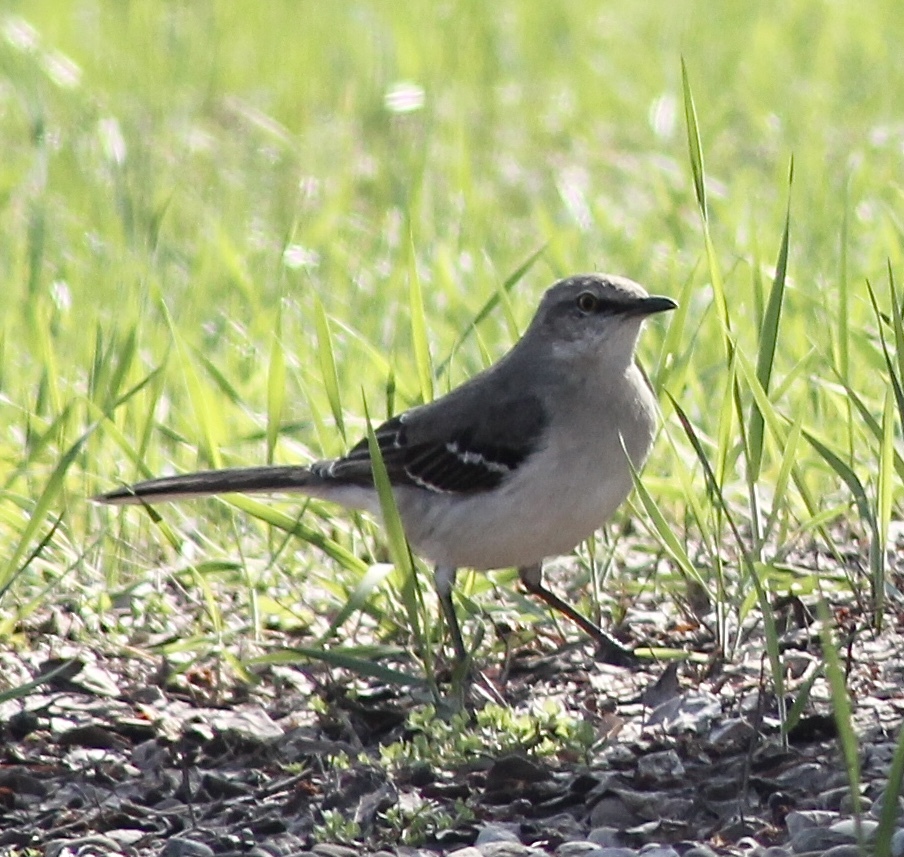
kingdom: Animalia
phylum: Chordata
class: Aves
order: Passeriformes
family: Mimidae
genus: Mimus
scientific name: Mimus polyglottos
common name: Northern mockingbird
